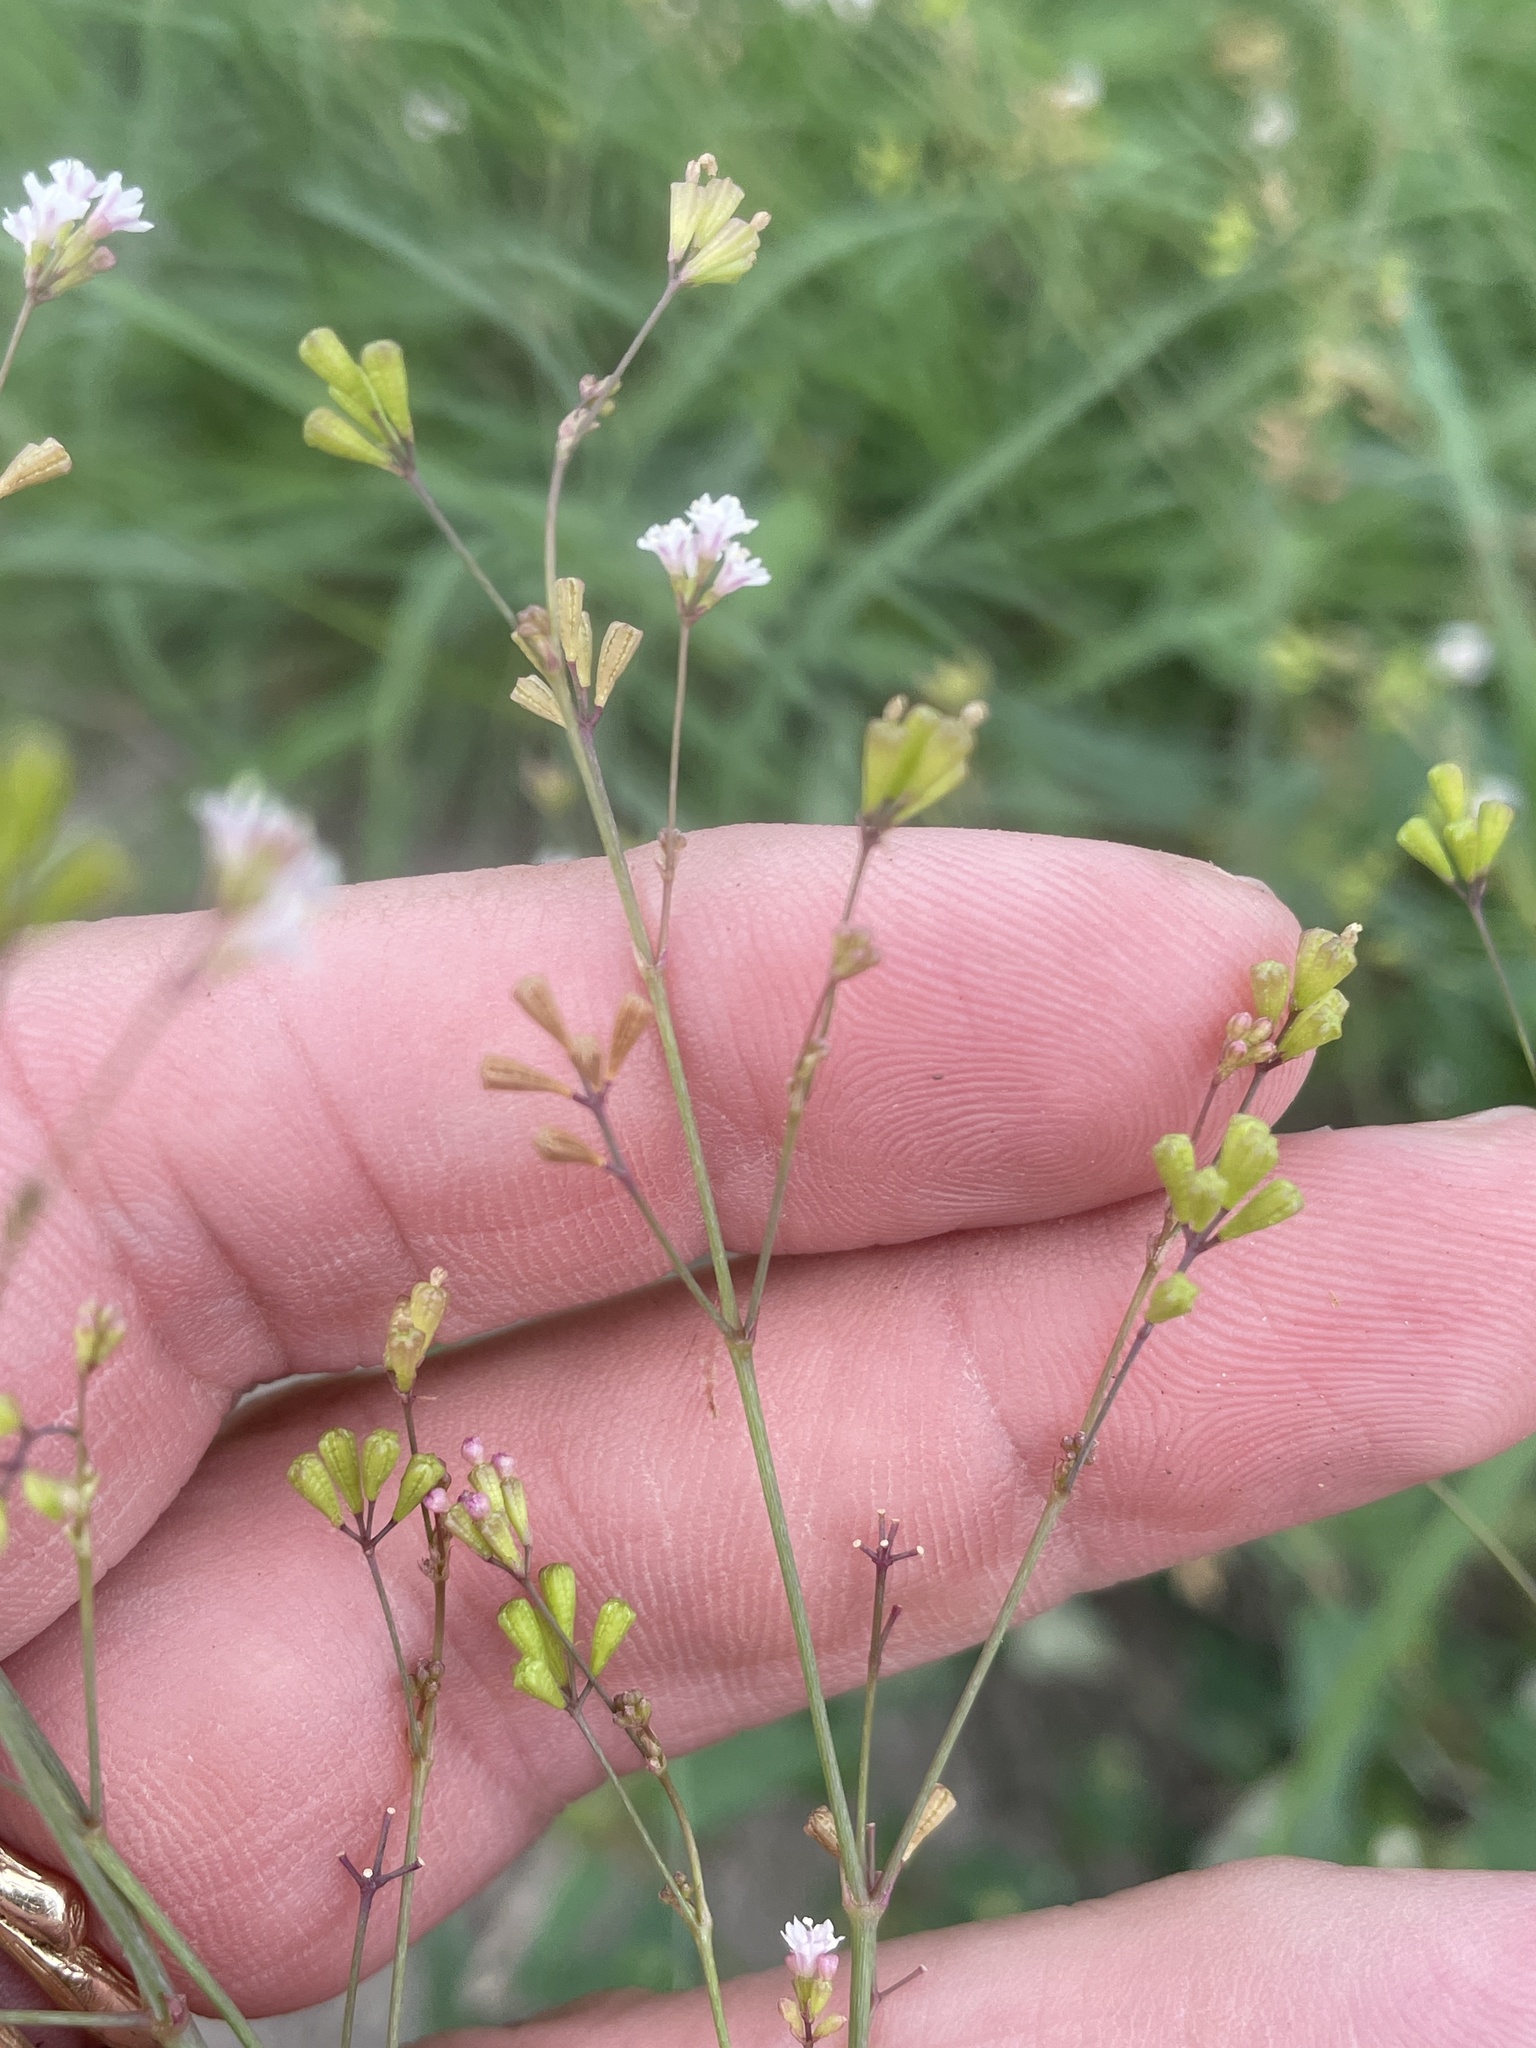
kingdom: Plantae
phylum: Tracheophyta
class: Magnoliopsida
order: Caryophyllales
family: Nyctaginaceae
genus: Boerhavia
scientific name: Boerhavia erecta
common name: Erect spiderling
